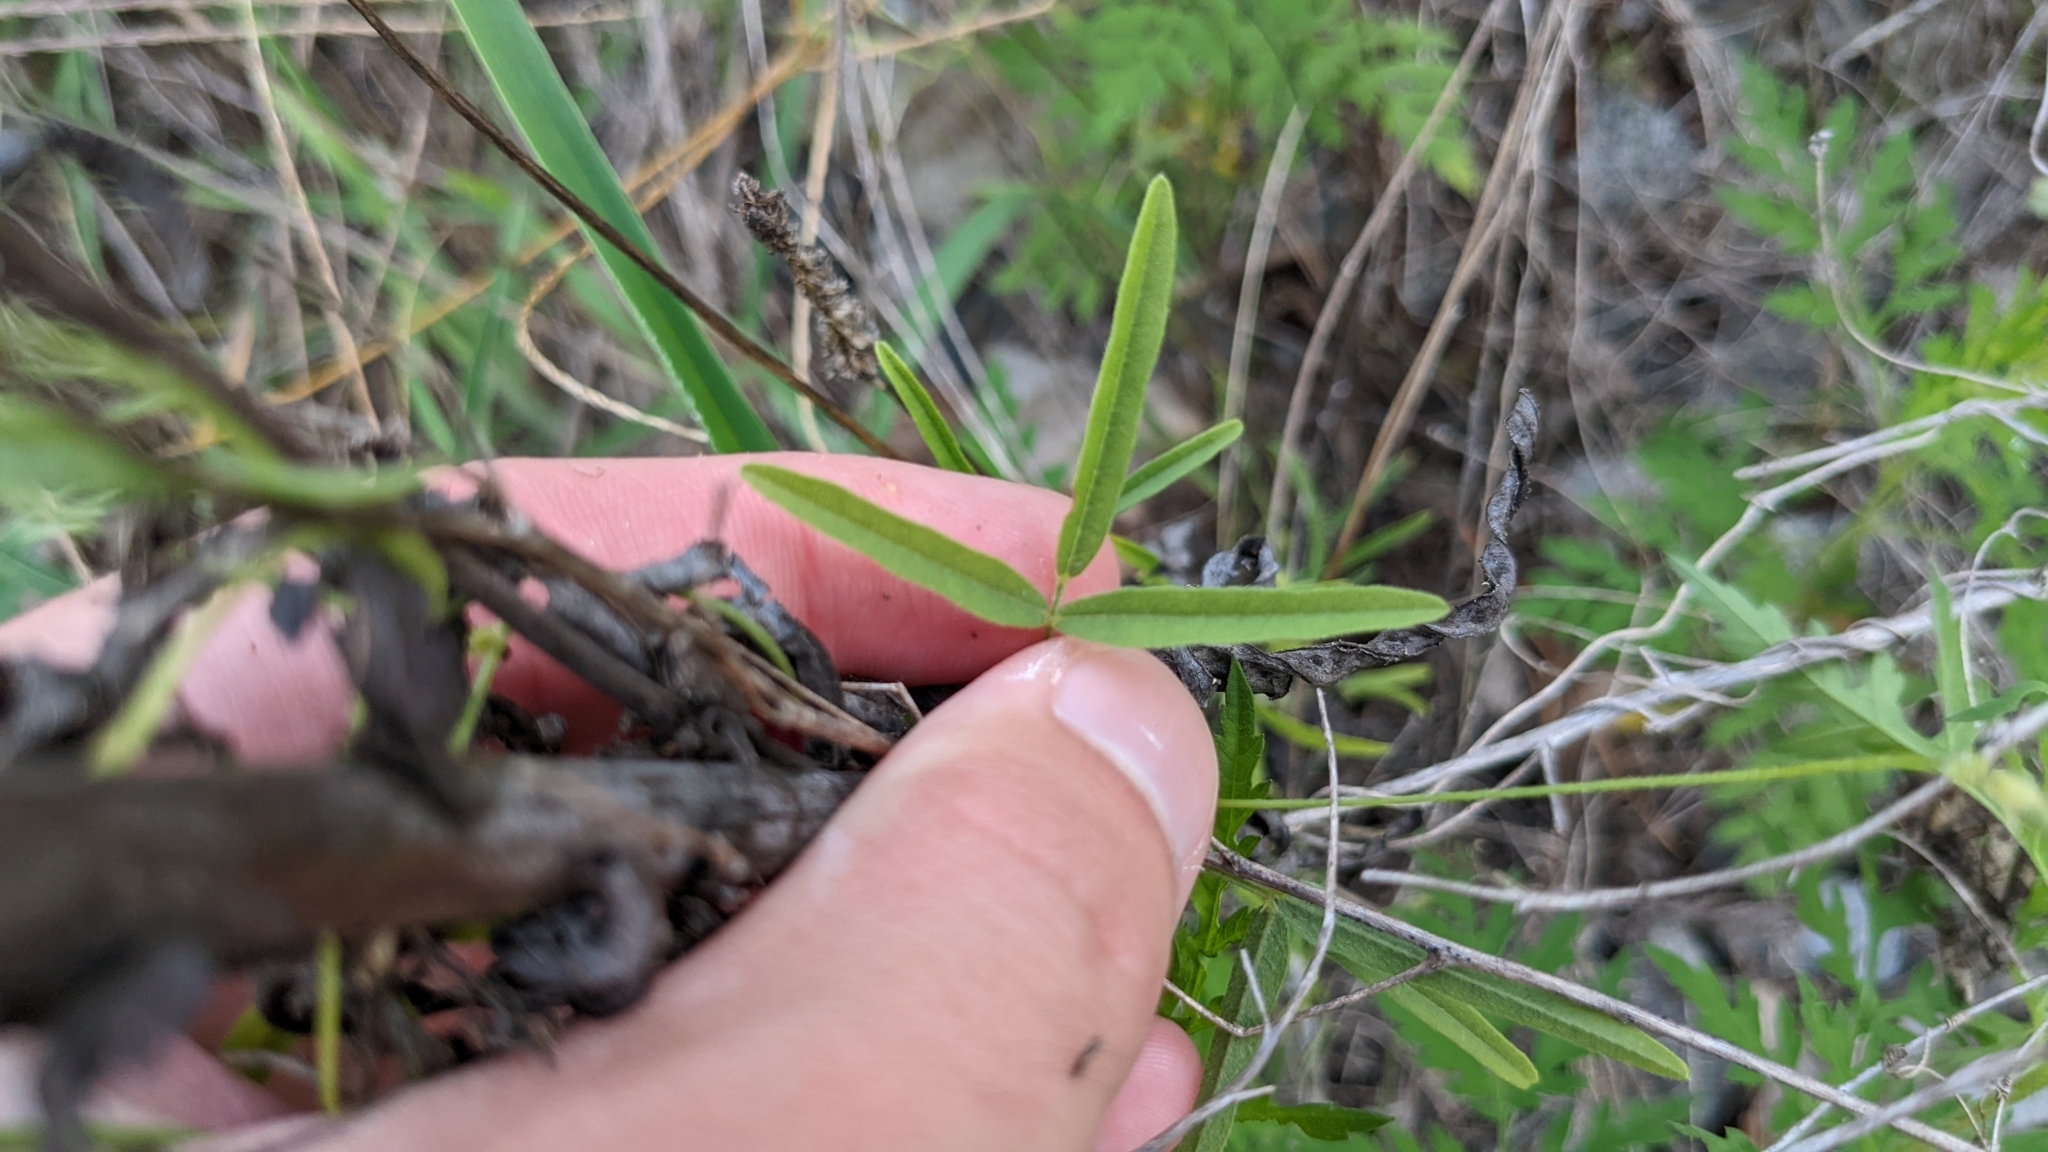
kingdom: Plantae
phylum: Tracheophyta
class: Magnoliopsida
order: Fabales
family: Fabaceae
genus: Strophostyles
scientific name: Strophostyles leiosperma
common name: Smooth-seed wild bean
